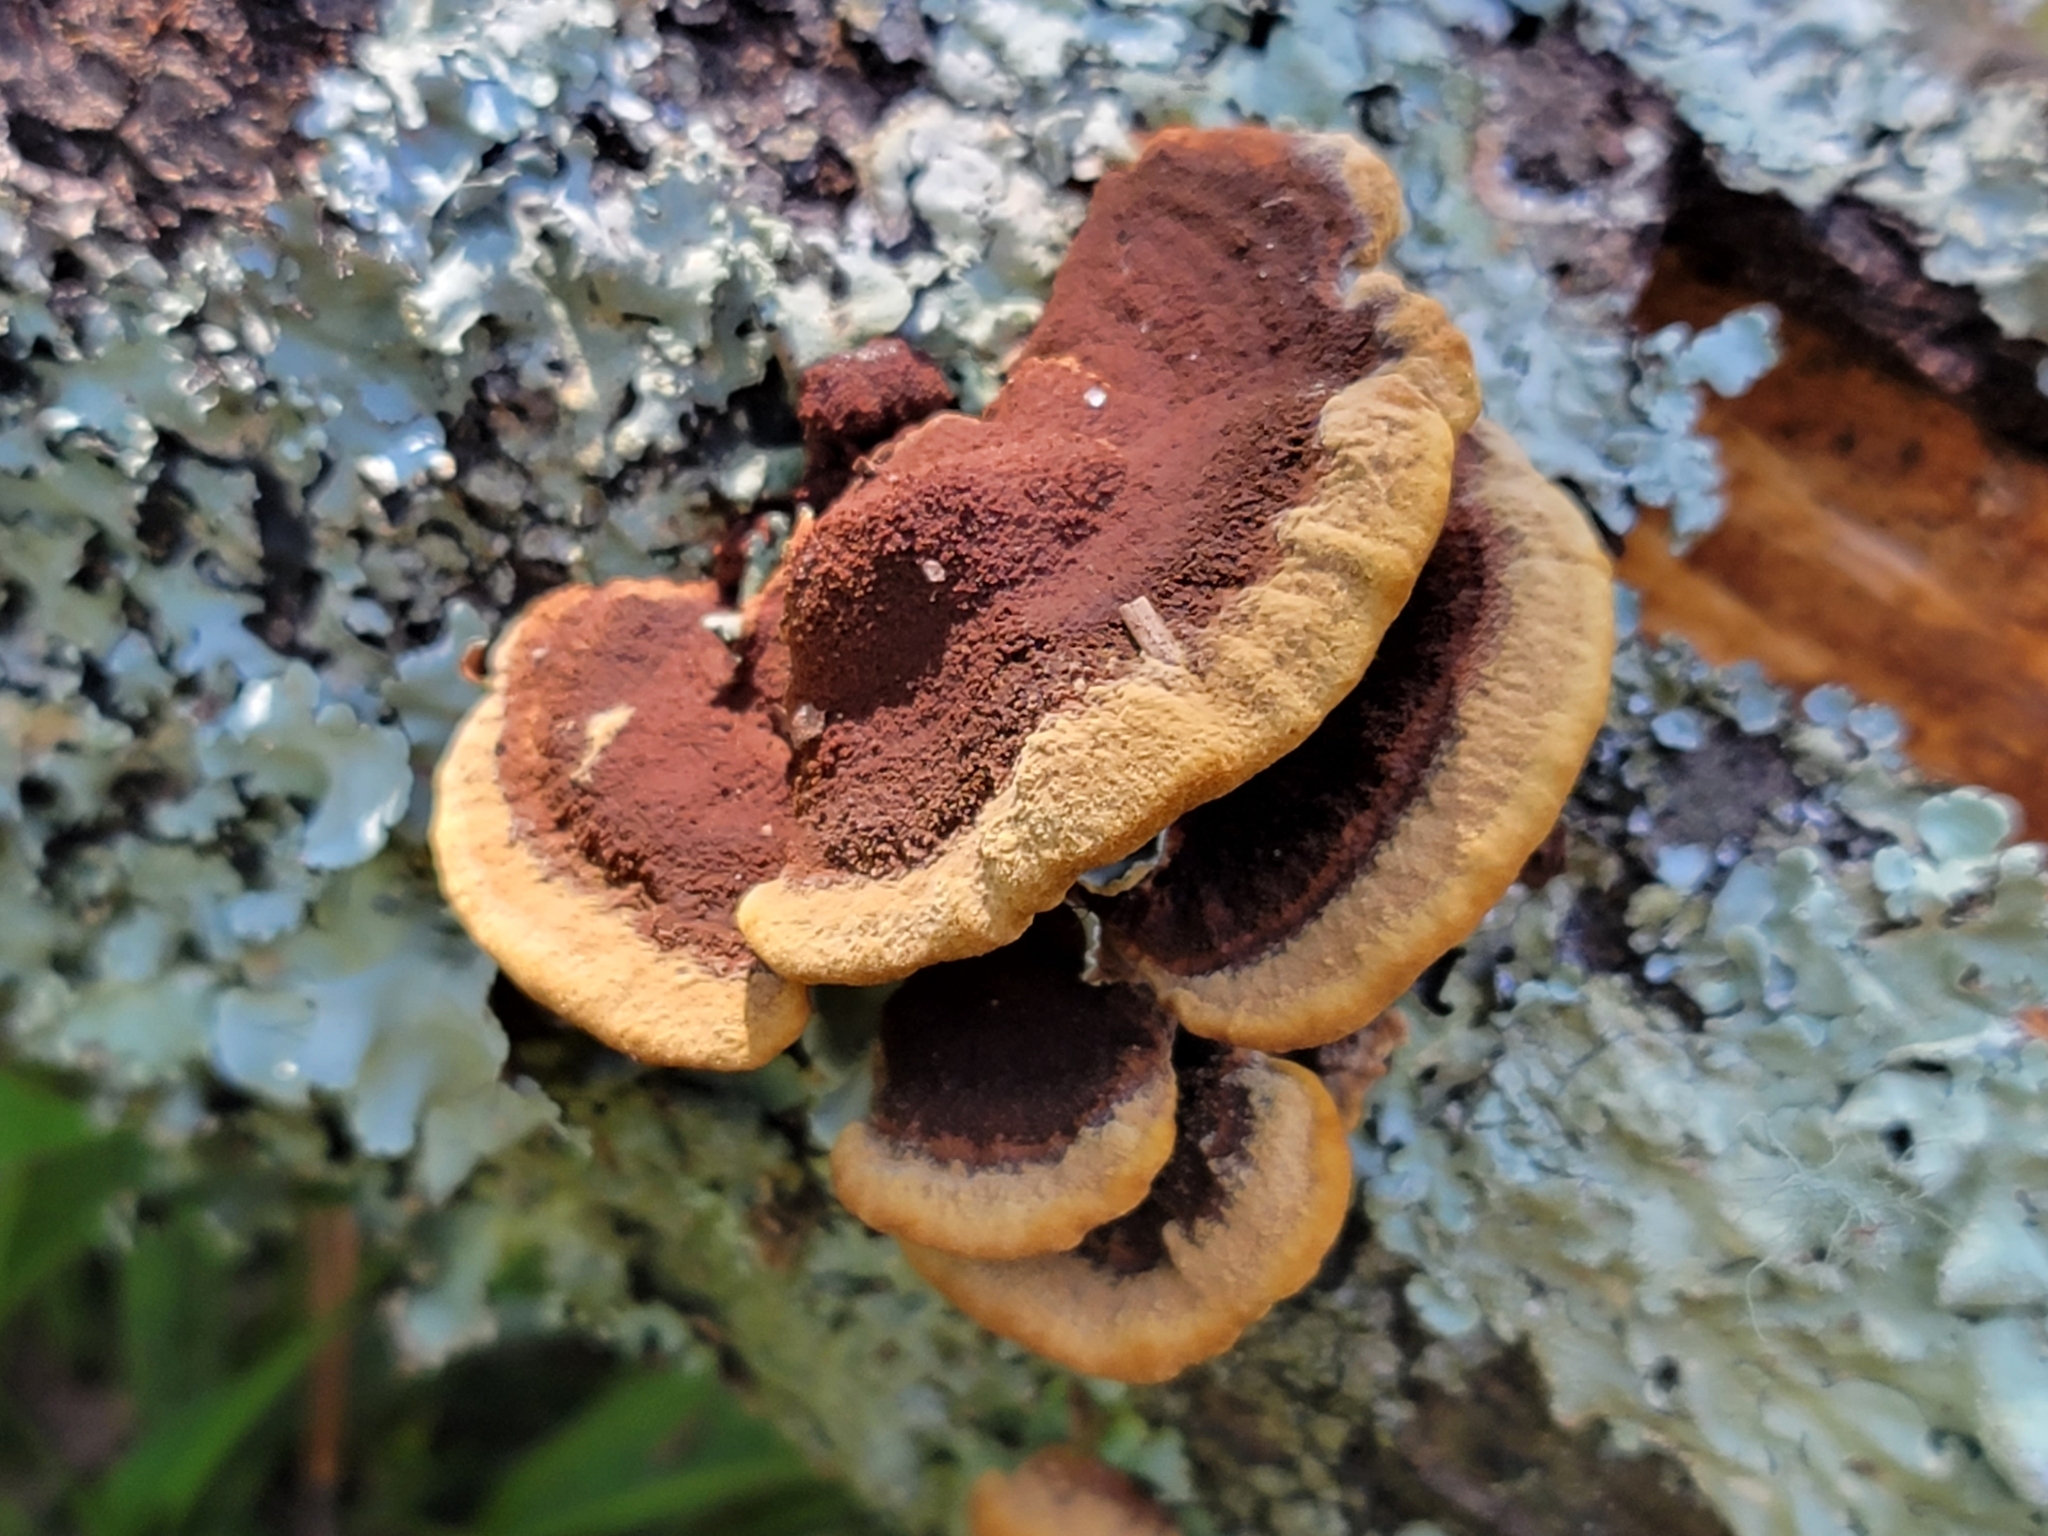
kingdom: Fungi
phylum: Basidiomycota
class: Agaricomycetes
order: Hymenochaetales
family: Hymenochaetaceae
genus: Phellinus
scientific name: Phellinus gilvus
